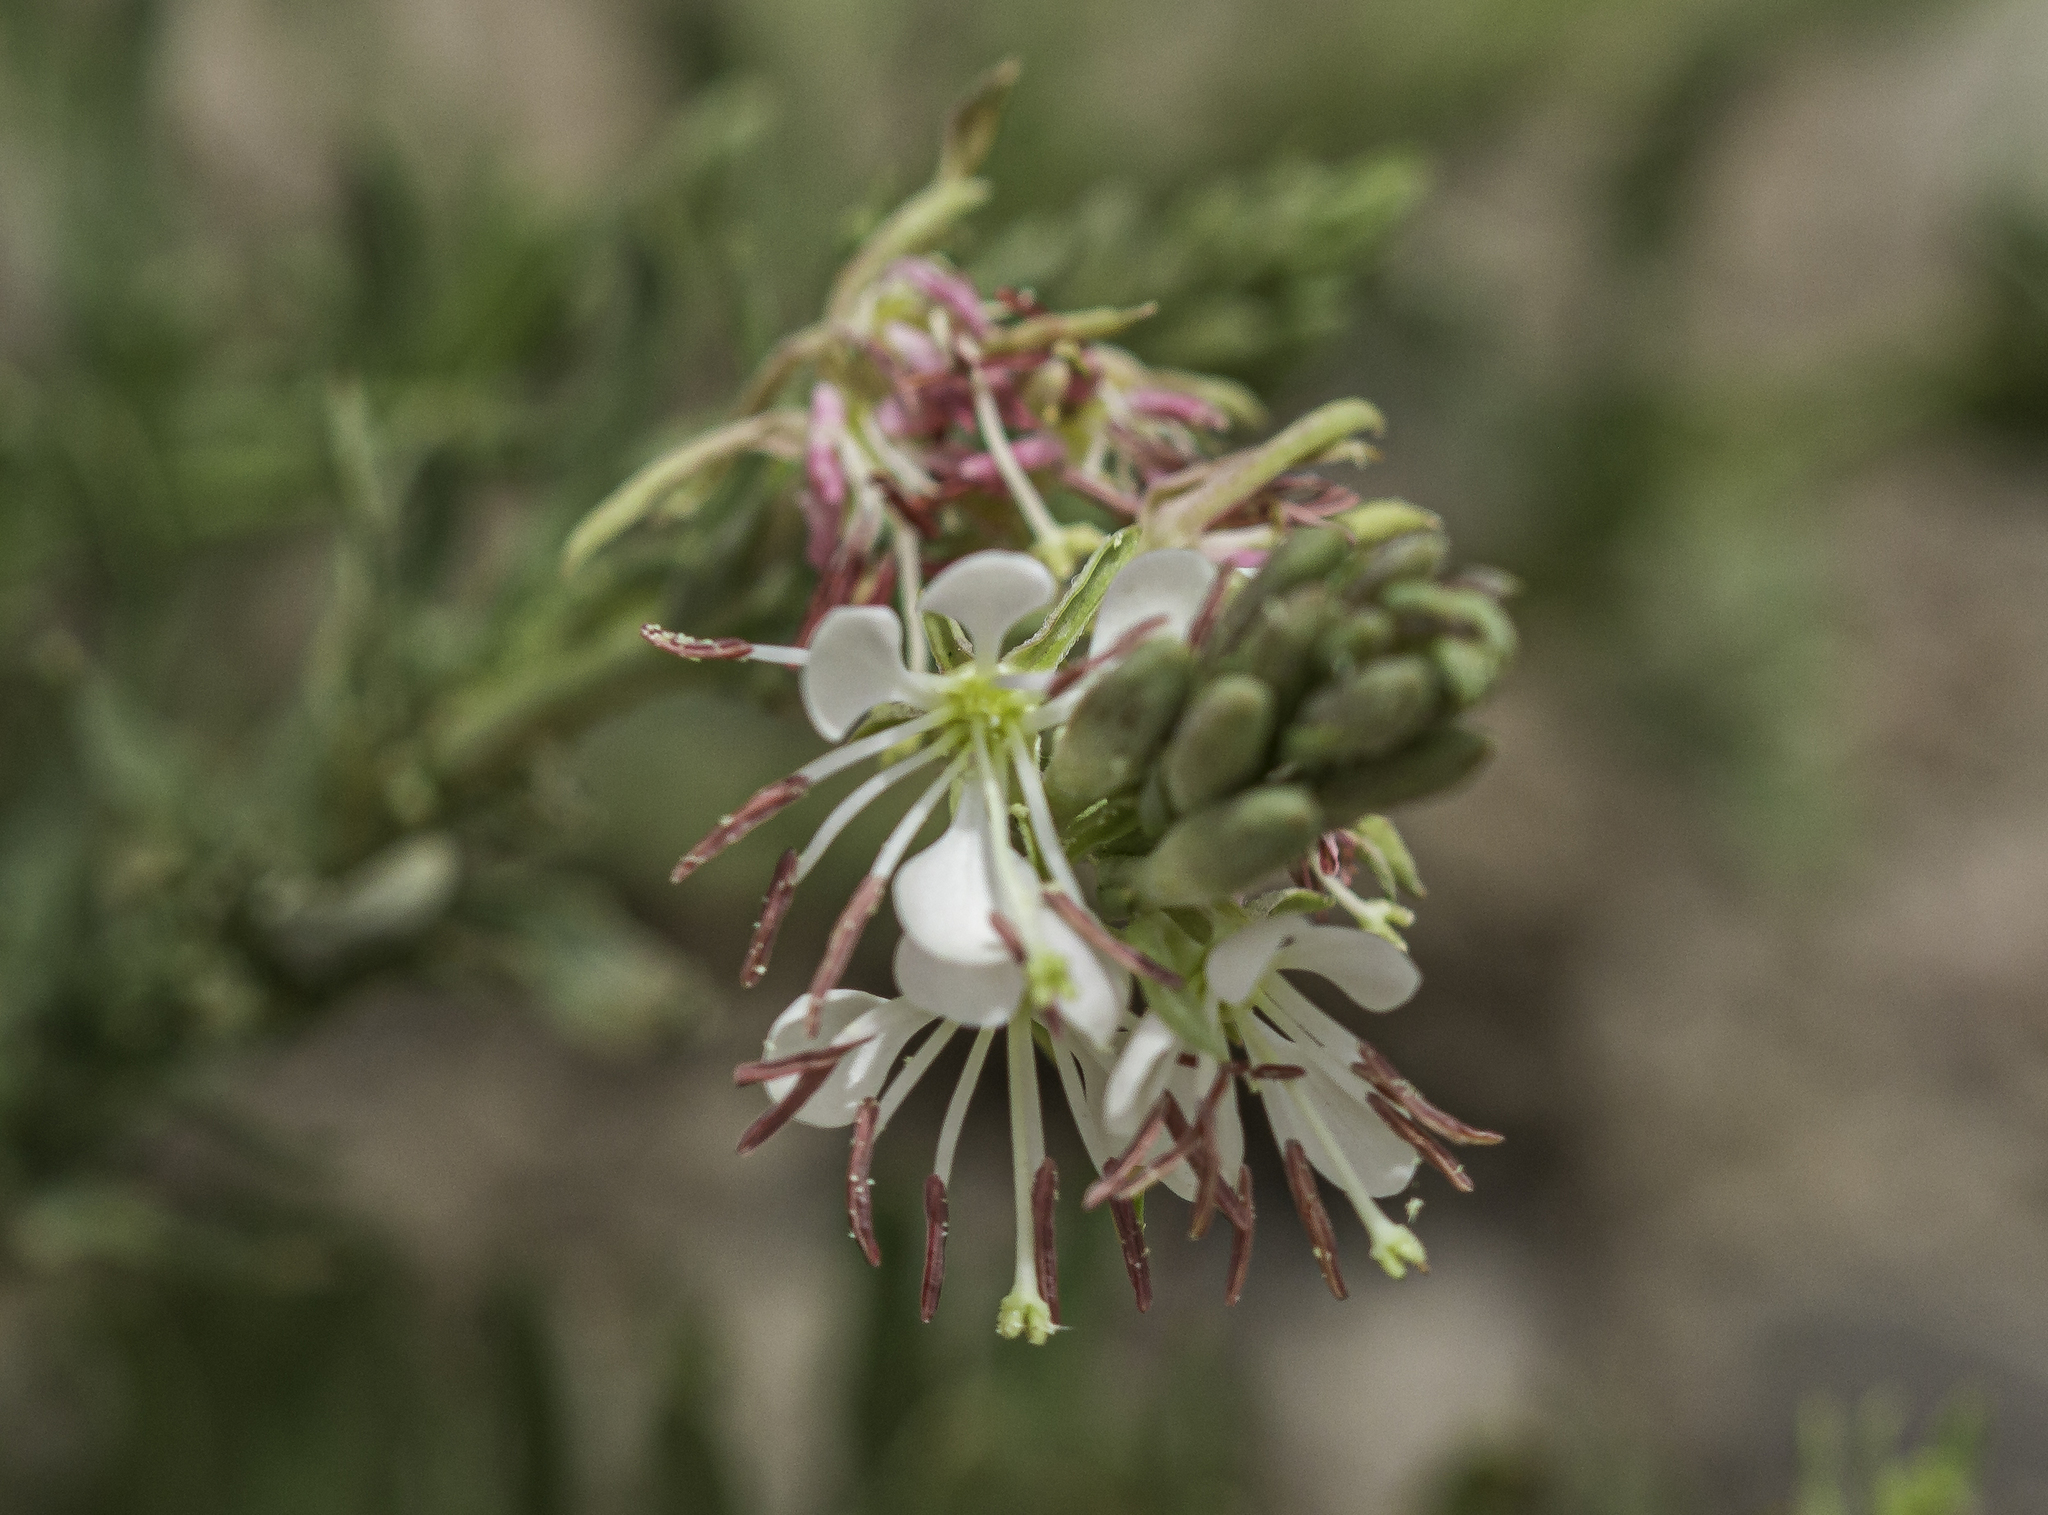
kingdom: Plantae
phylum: Tracheophyta
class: Magnoliopsida
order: Myrtales
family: Onagraceae
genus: Oenothera
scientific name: Oenothera suffrutescens
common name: Scarlet beeblossom
